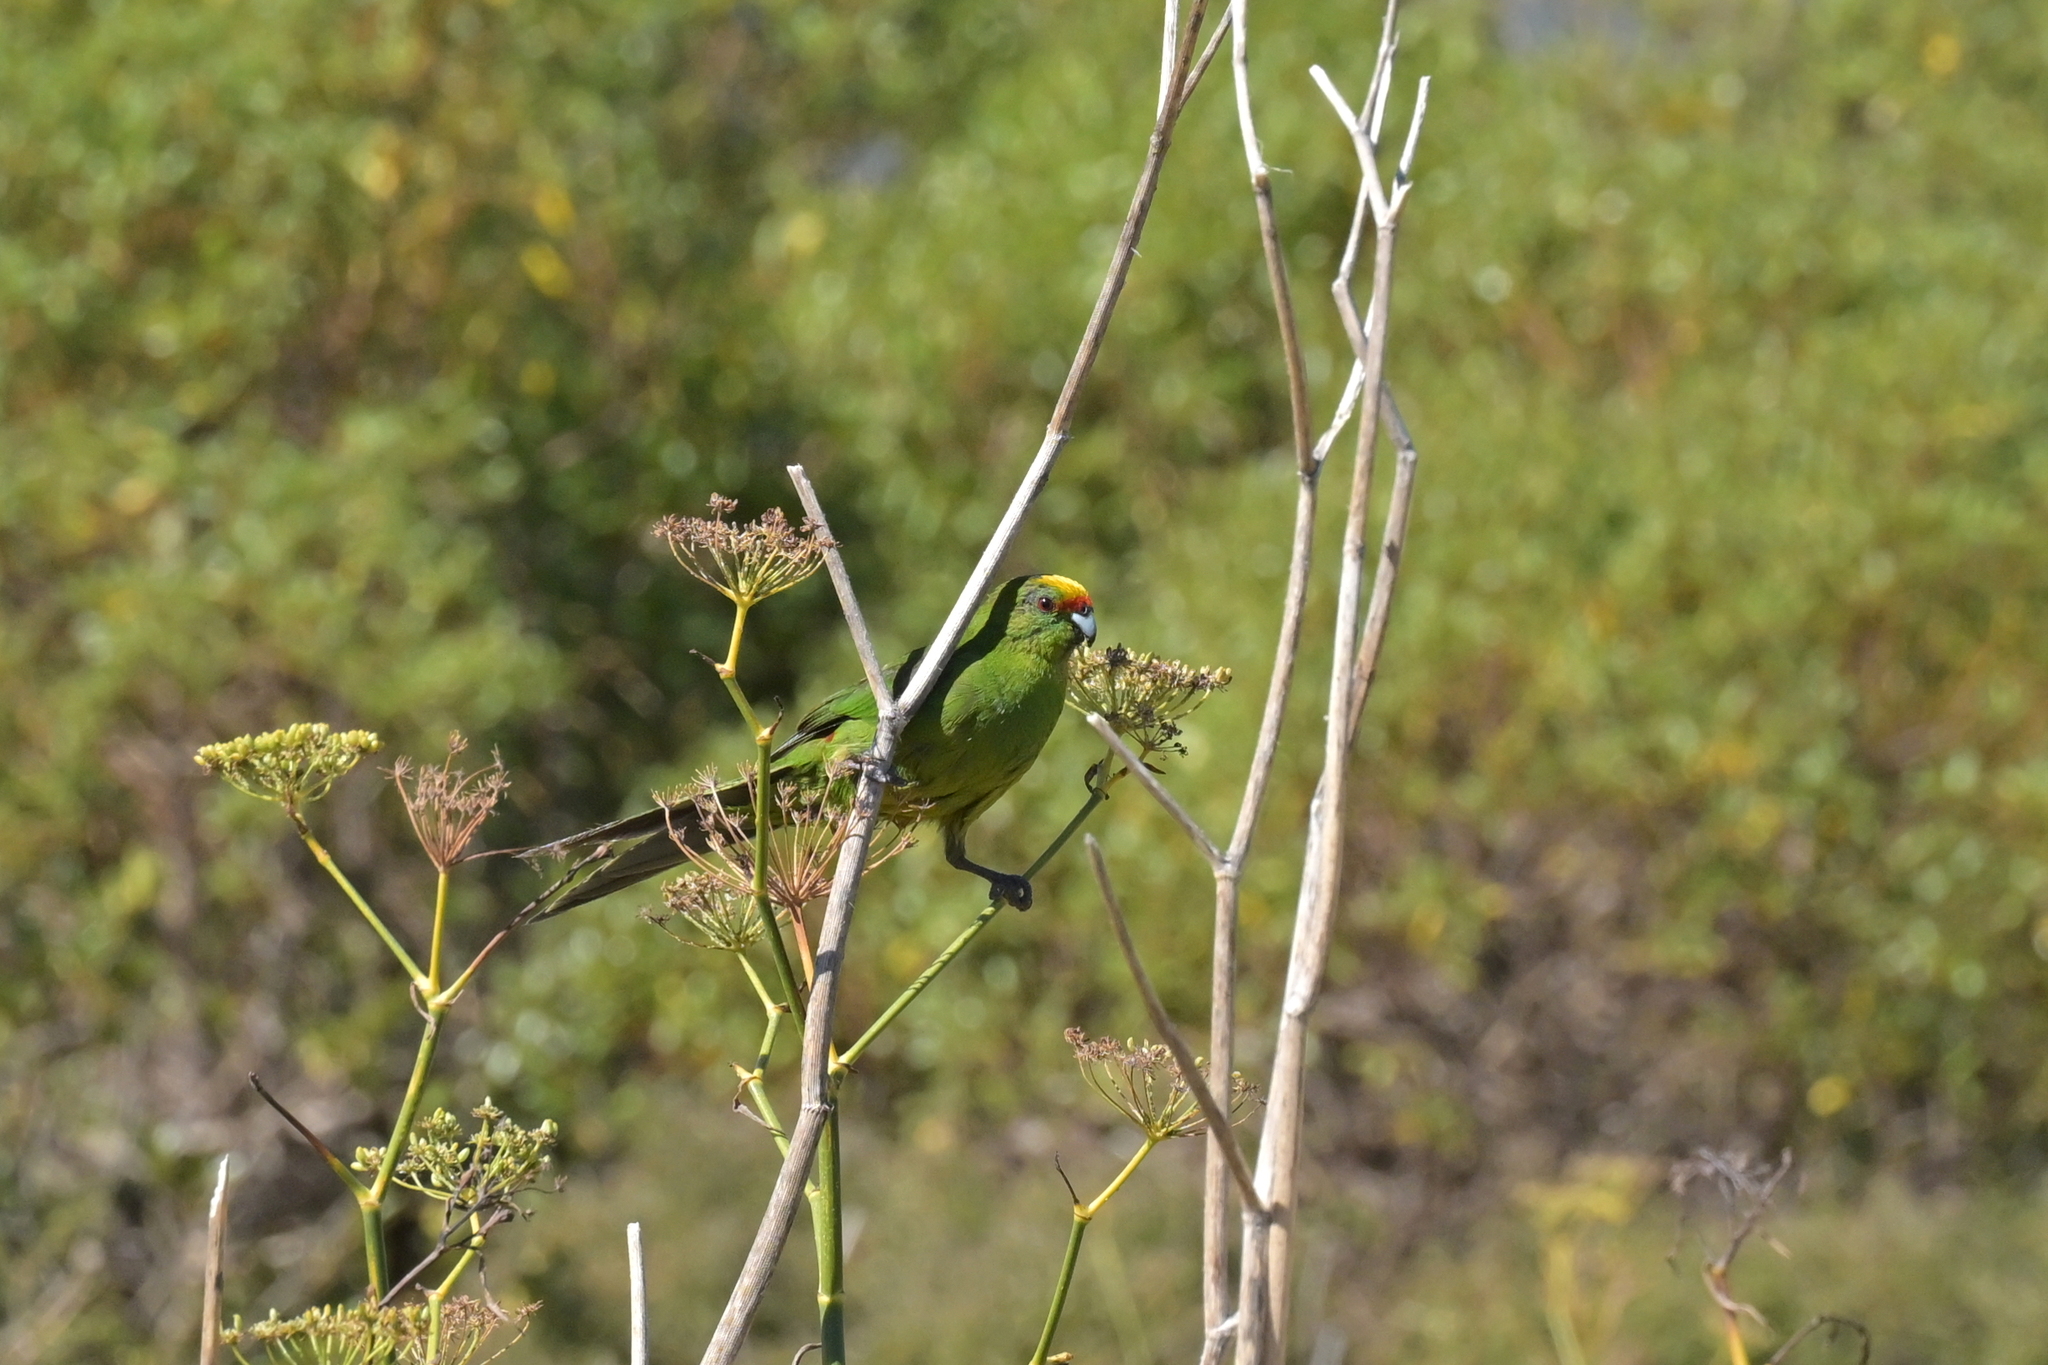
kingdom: Animalia
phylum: Chordata
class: Aves
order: Psittaciformes
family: Psittacidae
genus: Cyanoramphus
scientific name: Cyanoramphus auriceps
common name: Yellow-crowned parakeet
